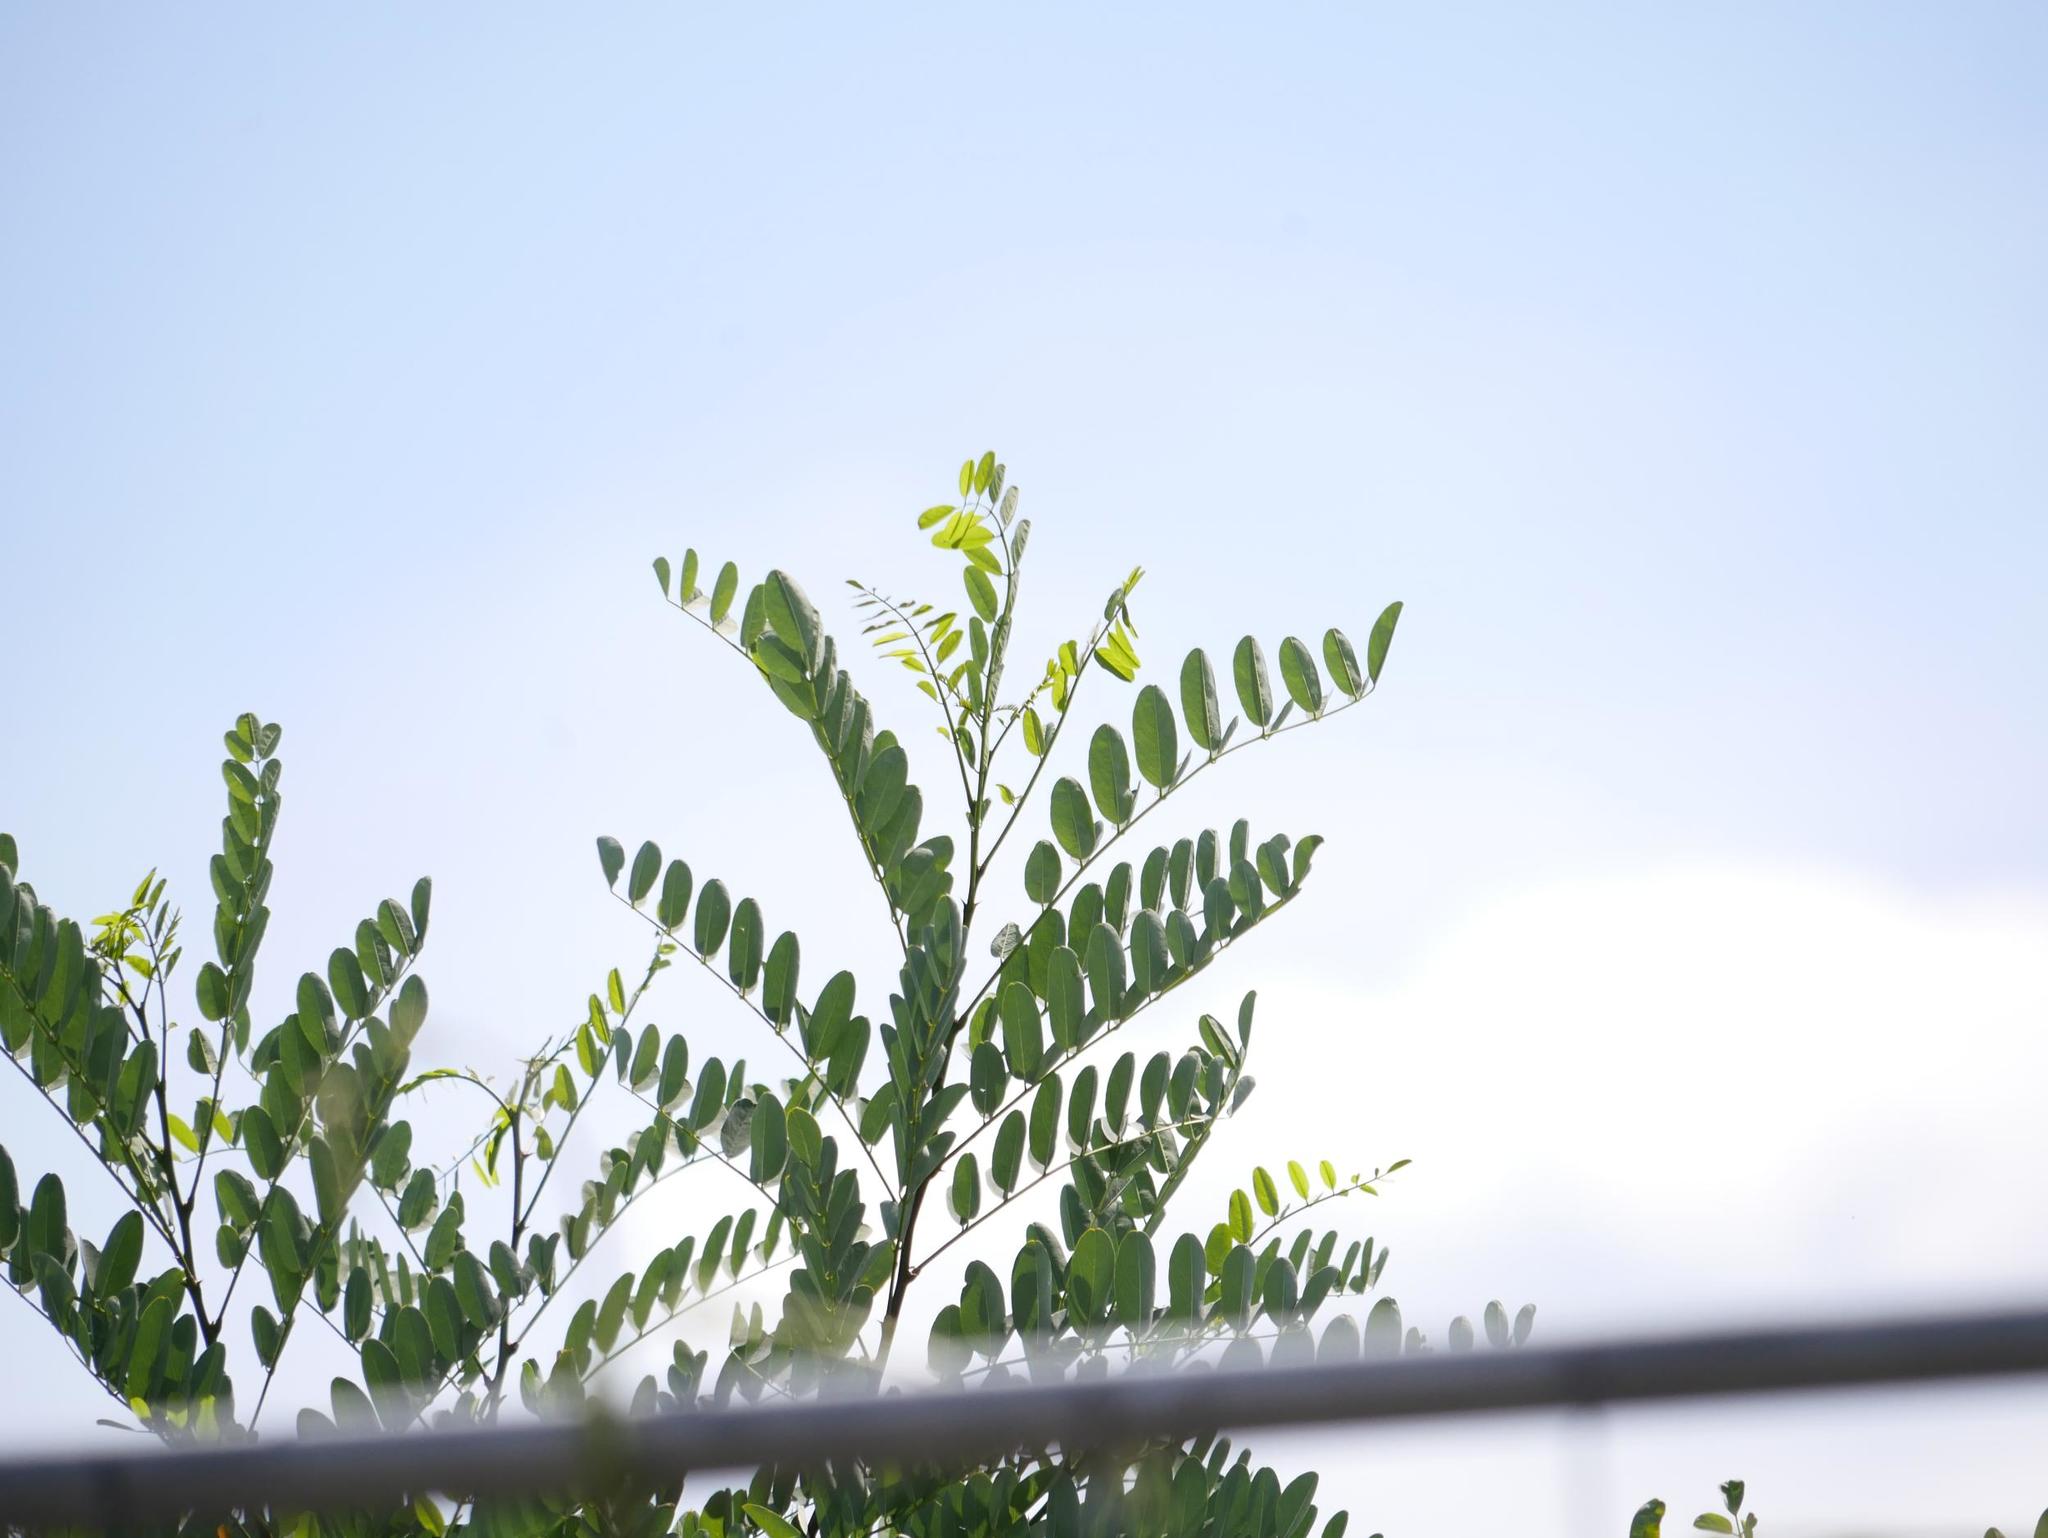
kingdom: Plantae
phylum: Tracheophyta
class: Magnoliopsida
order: Fabales
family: Fabaceae
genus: Robinia
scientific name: Robinia pseudoacacia
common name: Black locust
